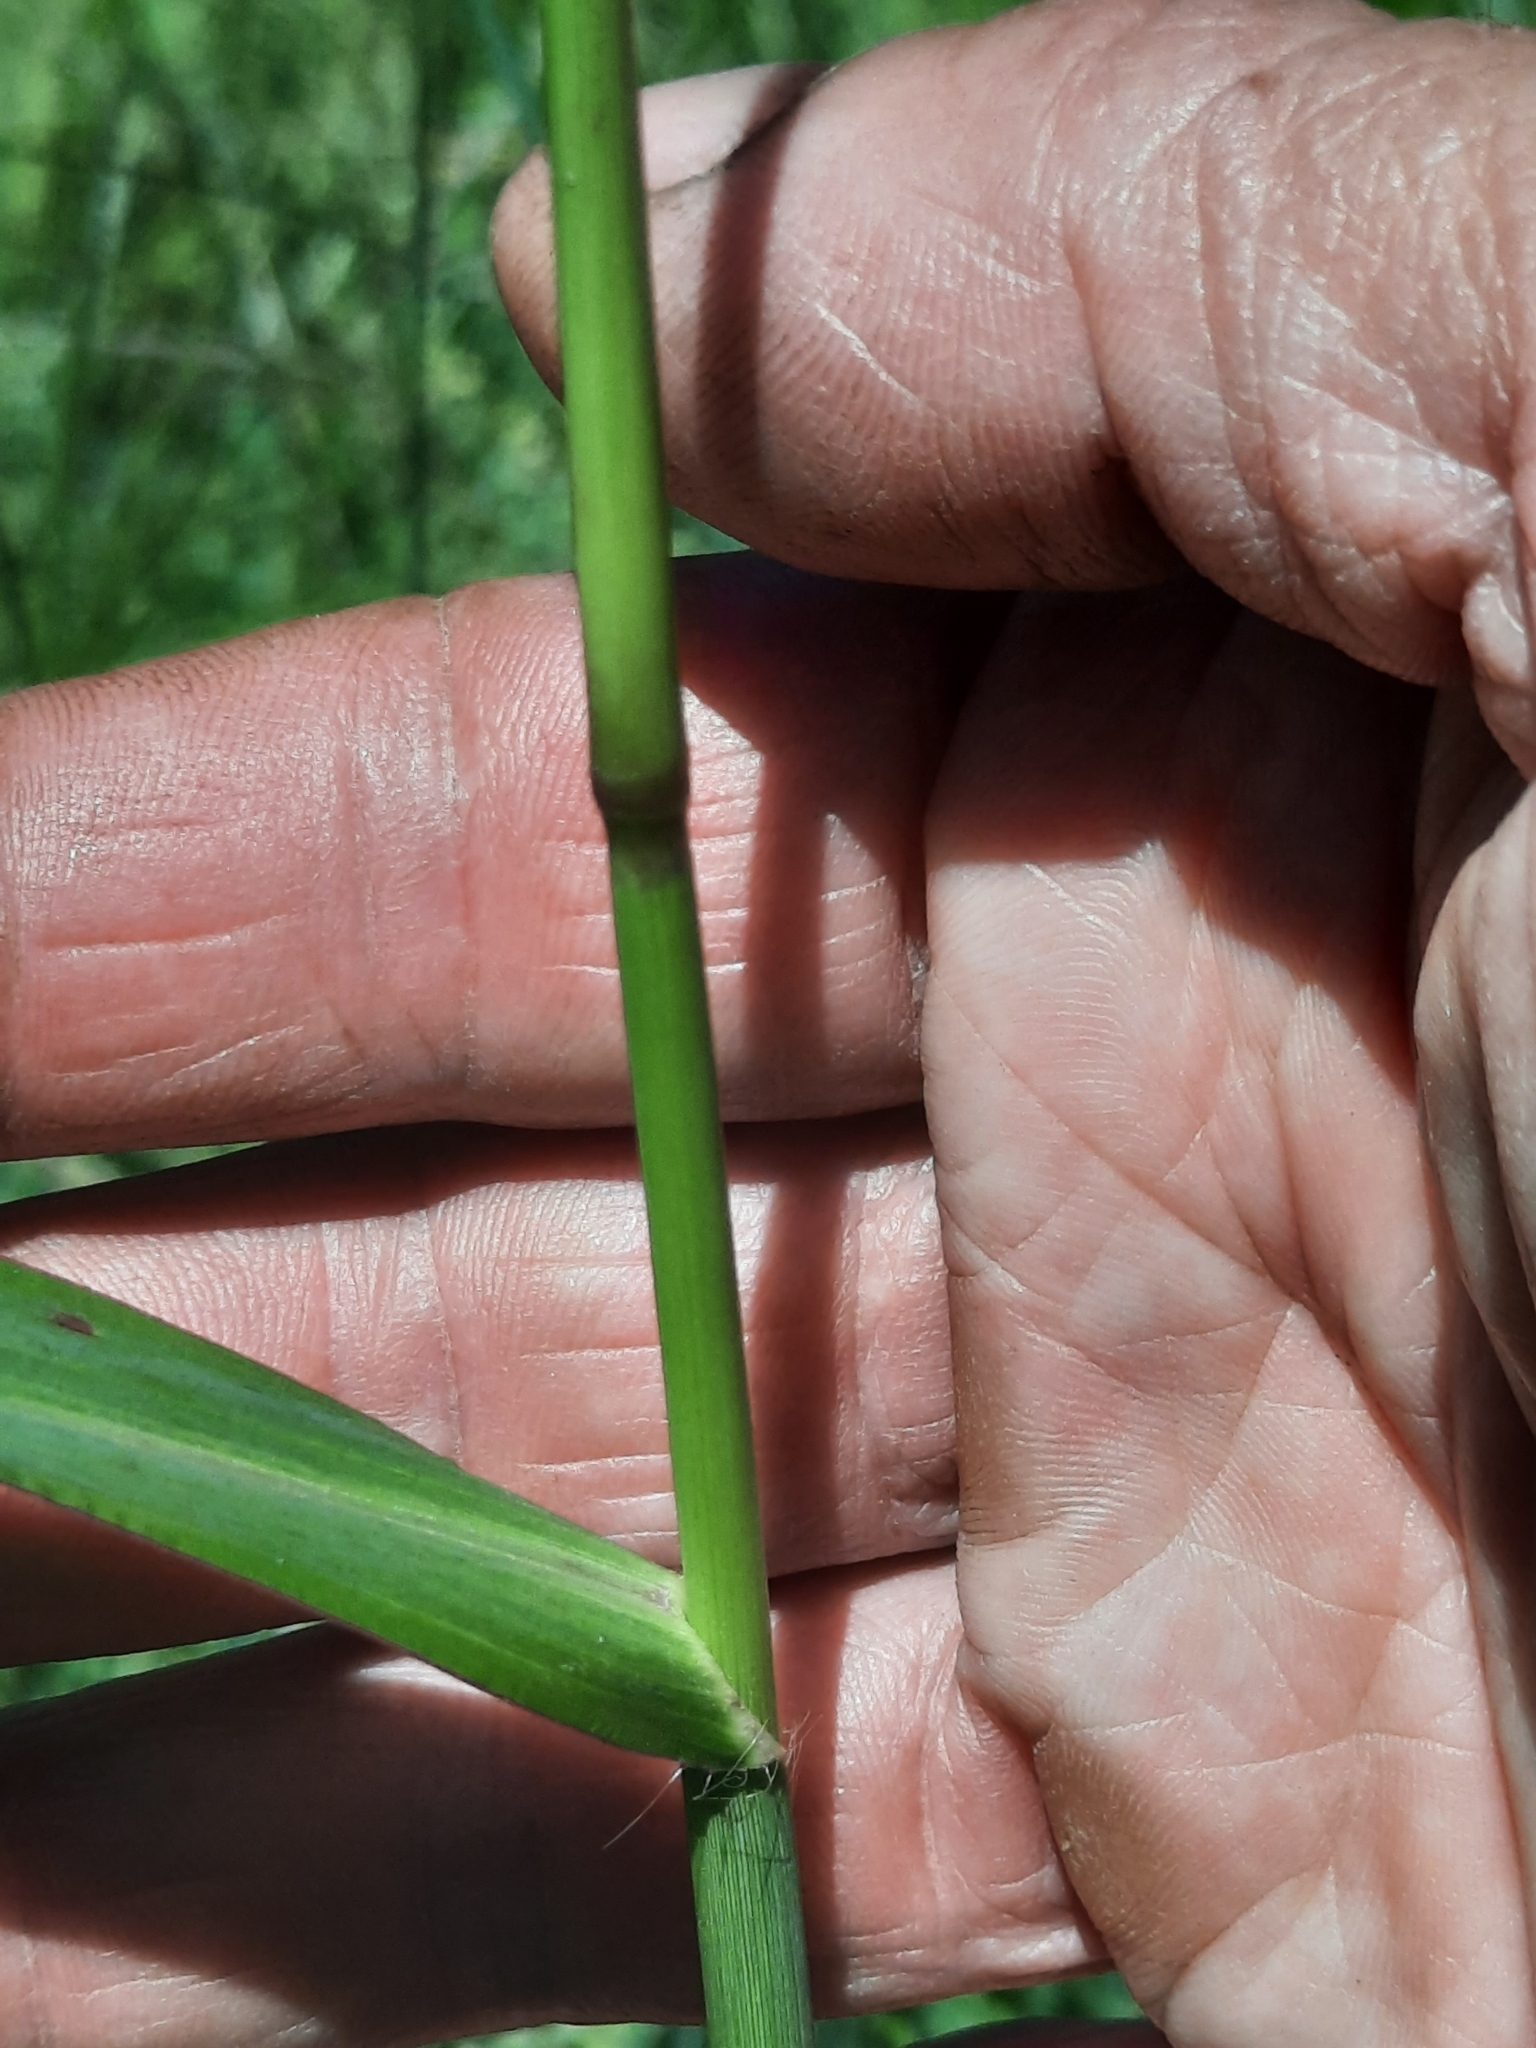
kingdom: Plantae
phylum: Tracheophyta
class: Liliopsida
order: Poales
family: Poaceae
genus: Echinochloa
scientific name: Echinochloa crus-galli
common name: Cockspur
